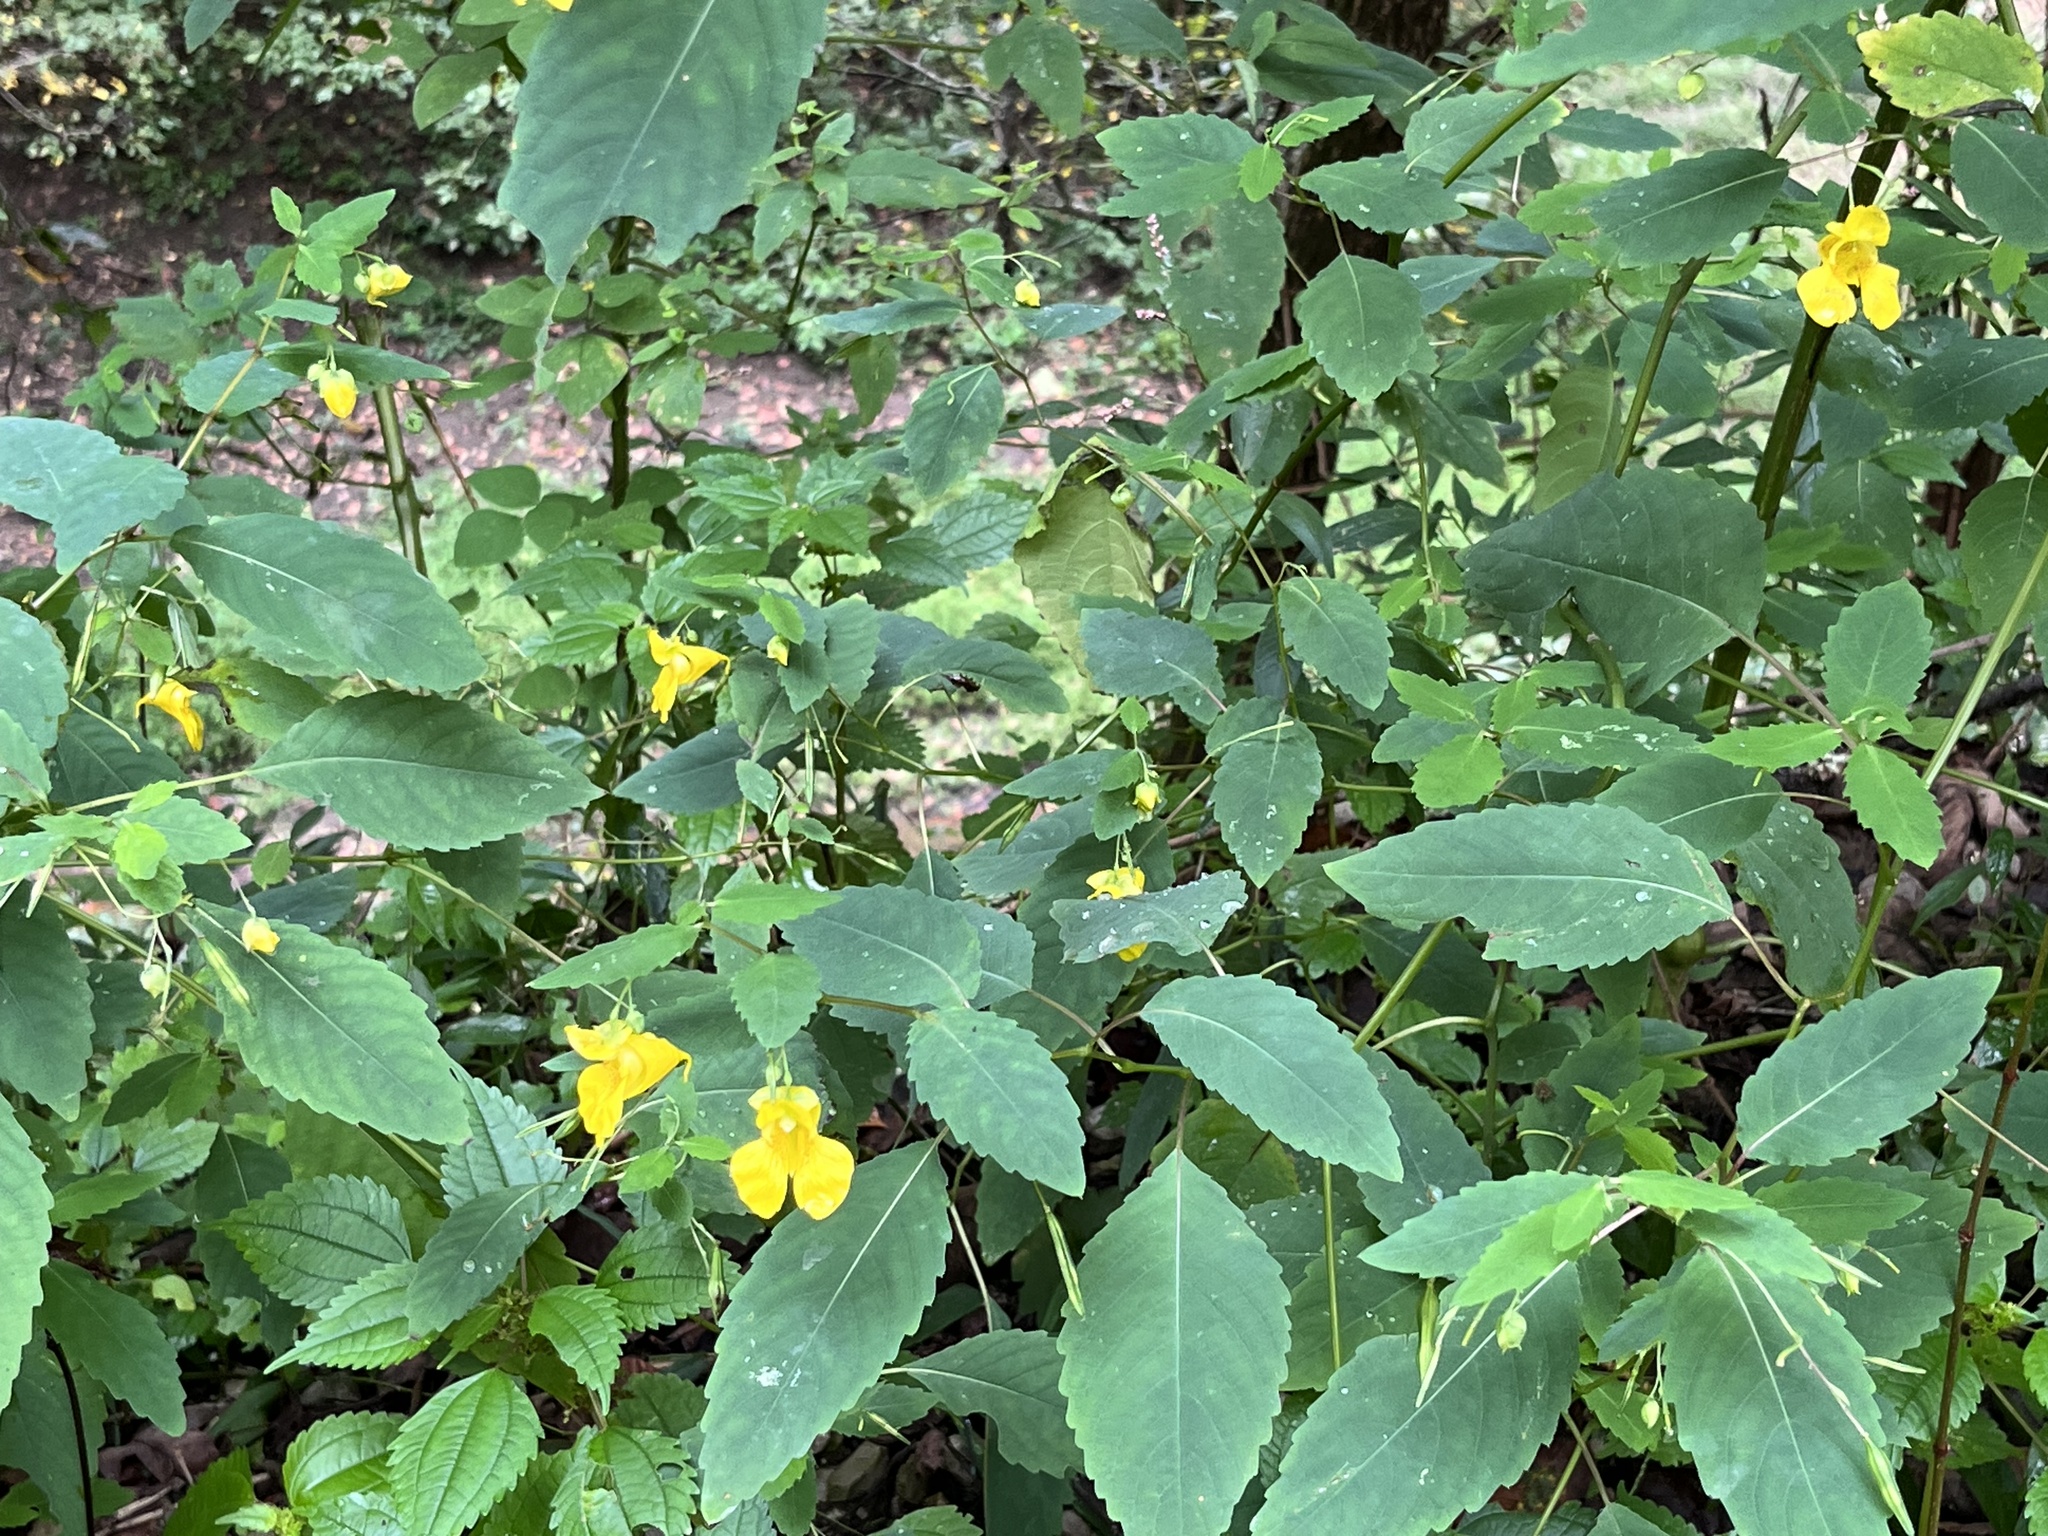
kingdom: Plantae
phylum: Tracheophyta
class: Magnoliopsida
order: Ericales
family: Balsaminaceae
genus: Impatiens
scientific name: Impatiens pallida
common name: Pale snapweed
